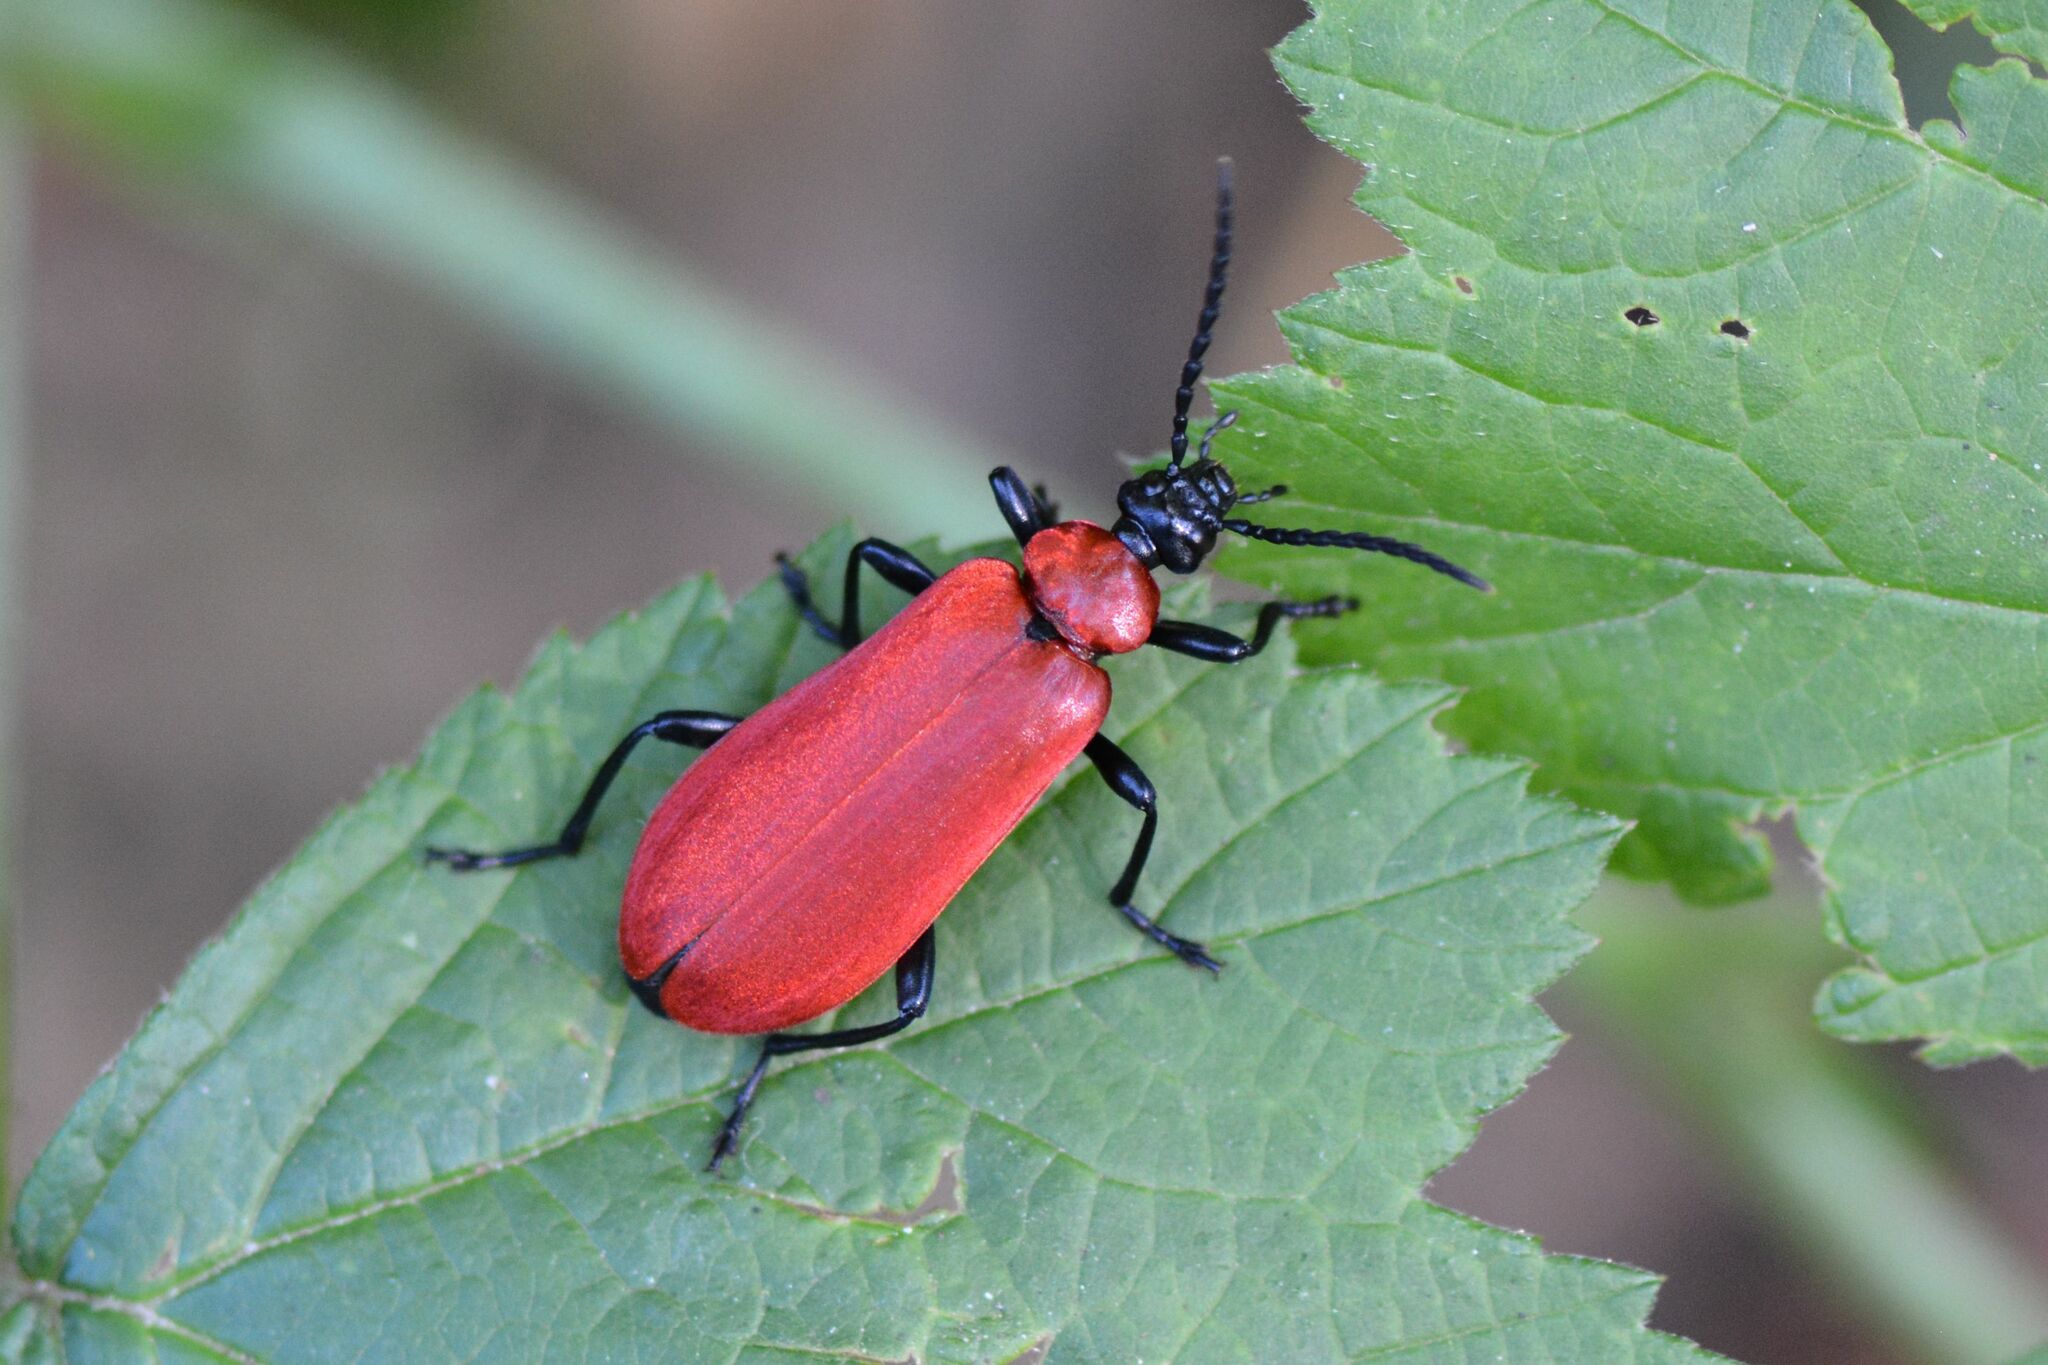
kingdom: Animalia
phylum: Arthropoda
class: Insecta
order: Coleoptera
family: Pyrochroidae
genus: Pyrochroa
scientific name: Pyrochroa coccinea
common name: Black-headed cardinal beetle
